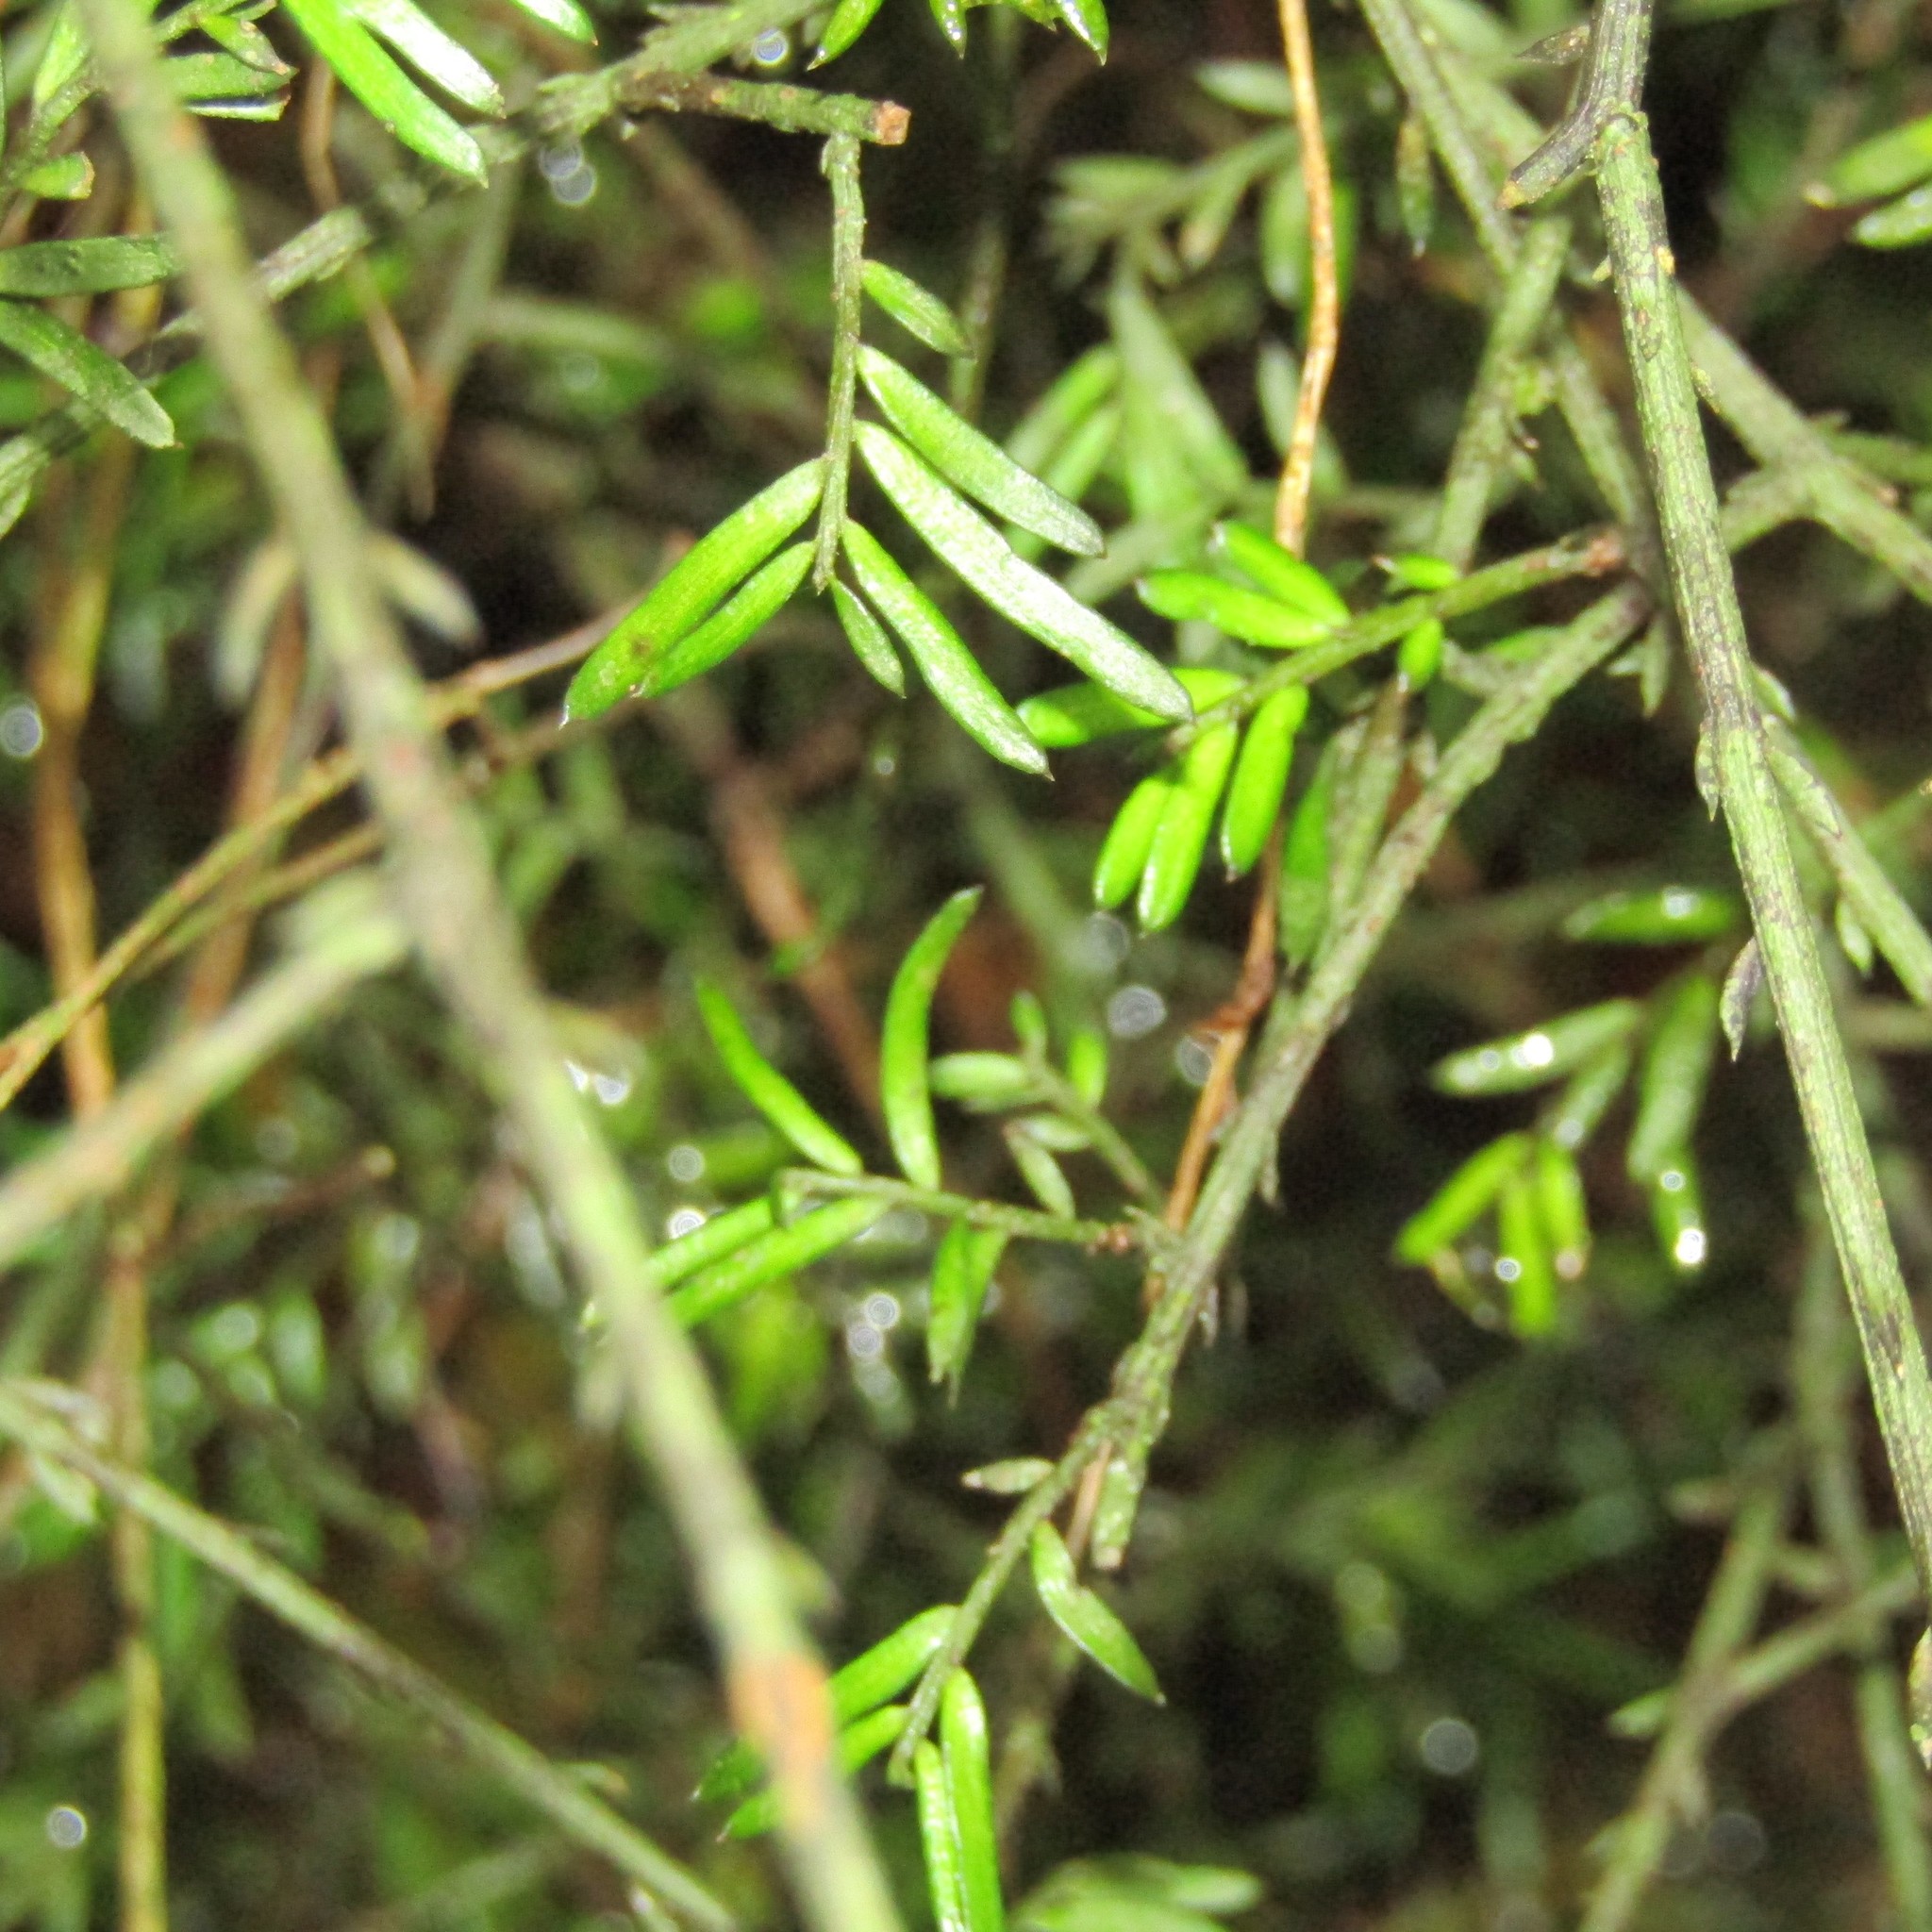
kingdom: Plantae
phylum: Tracheophyta
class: Pinopsida
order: Pinales
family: Podocarpaceae
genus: Prumnopitys
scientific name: Prumnopitys taxifolia
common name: Matai
